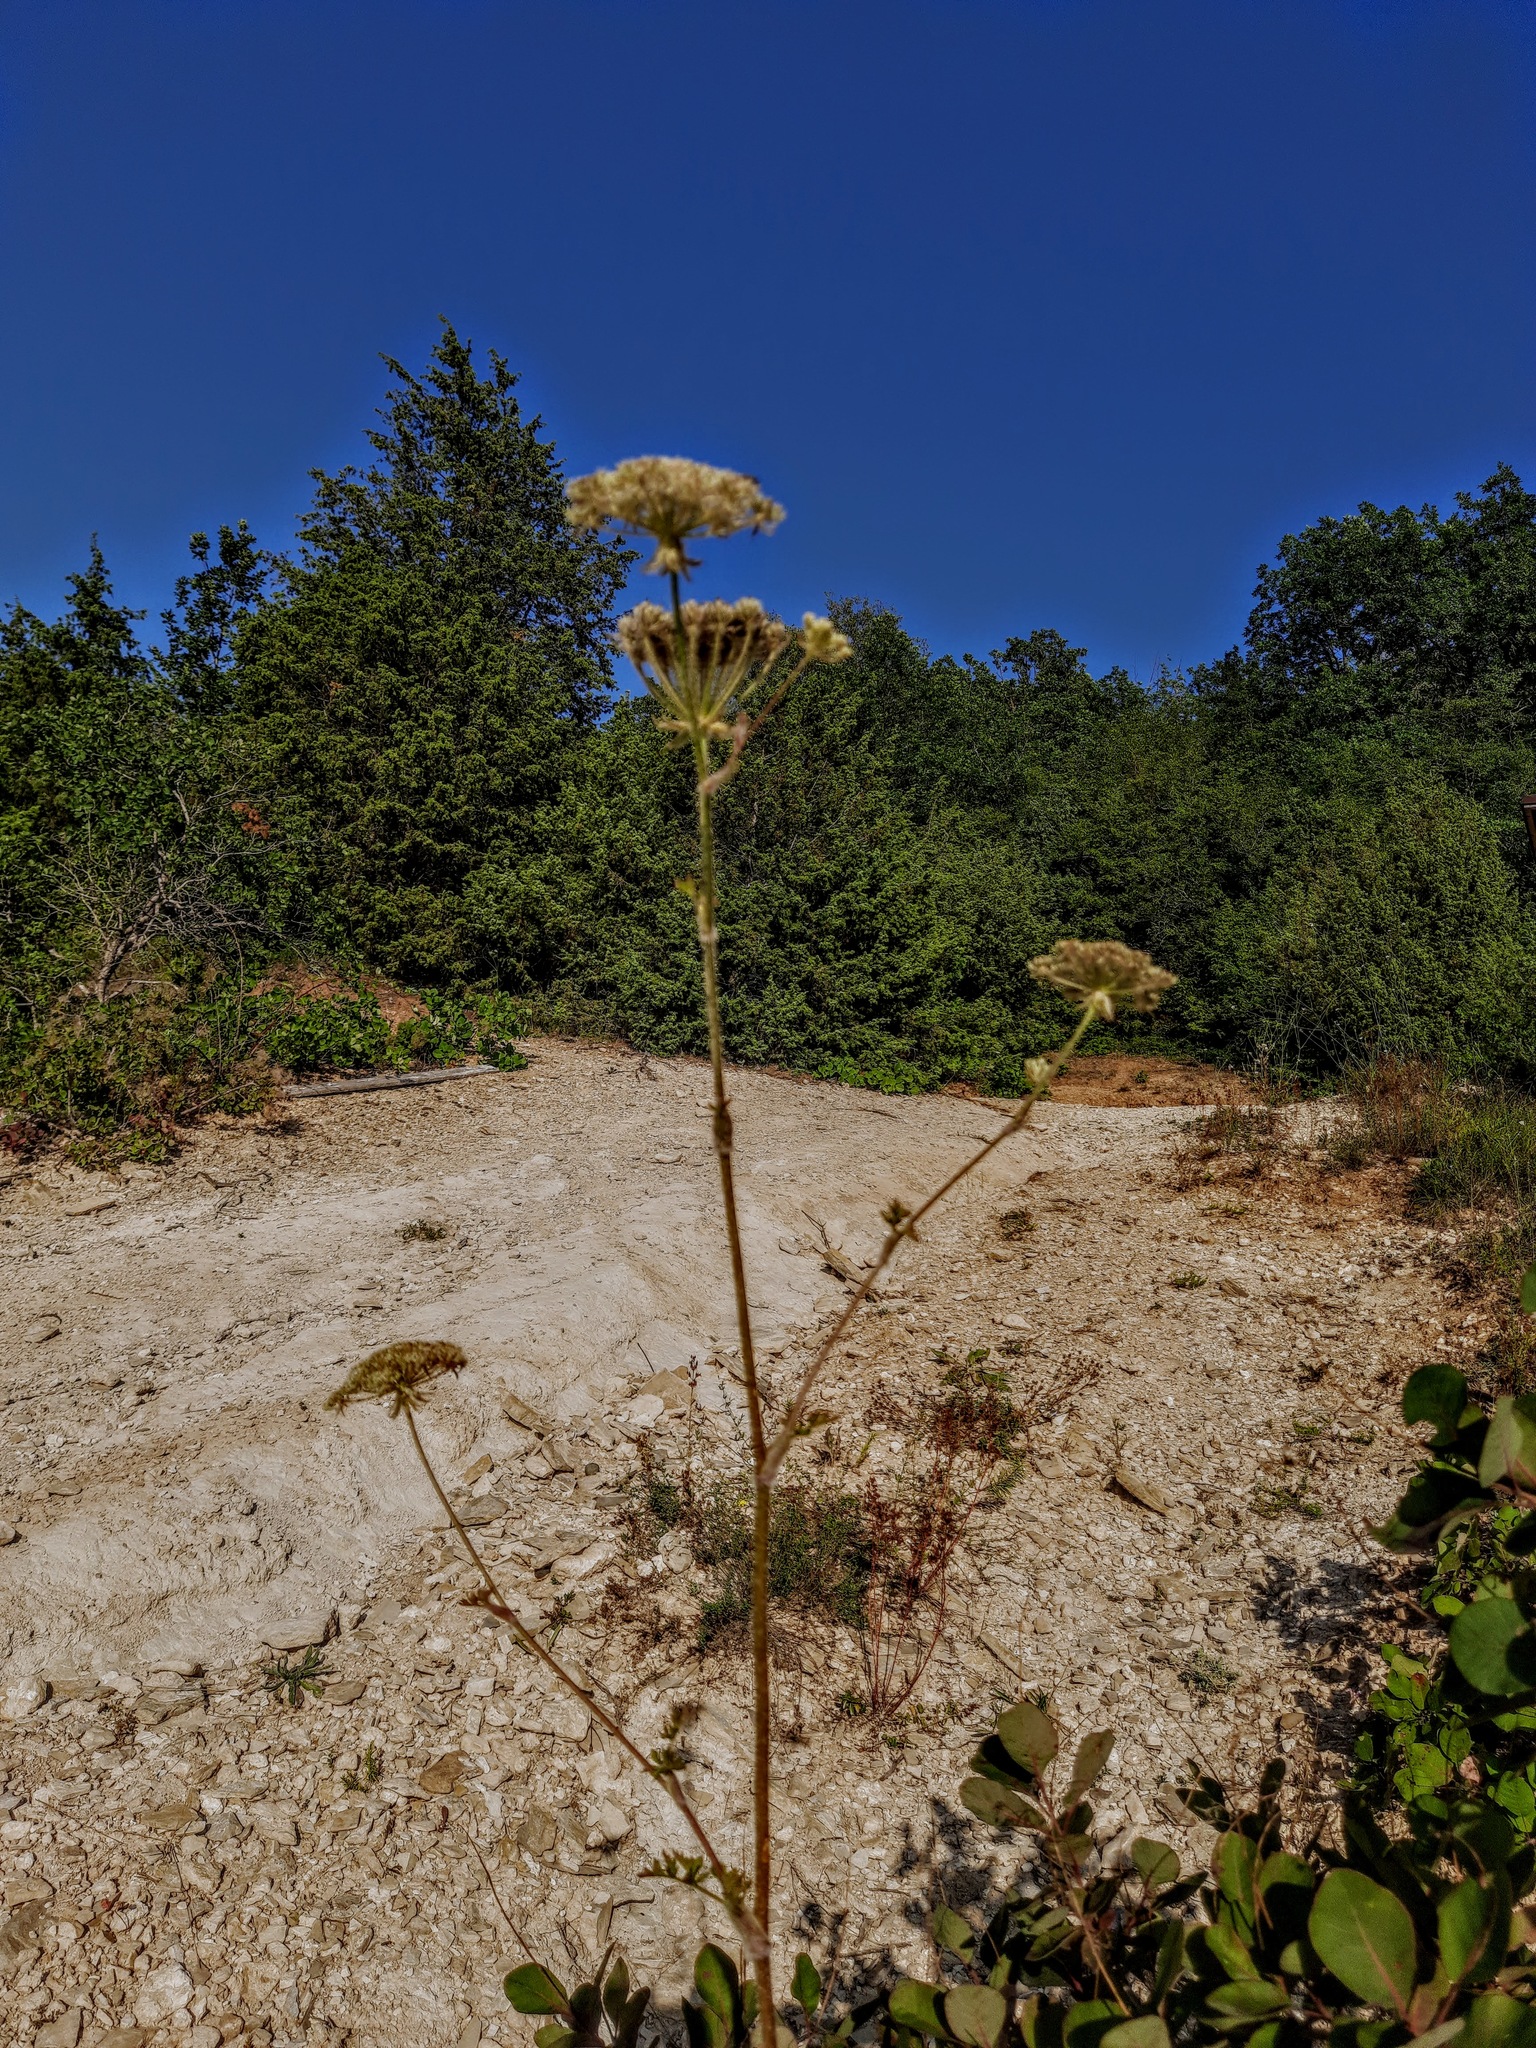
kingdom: Plantae
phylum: Tracheophyta
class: Magnoliopsida
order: Apiales
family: Apiaceae
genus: Silphiodaucus
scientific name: Silphiodaucus hispidus
